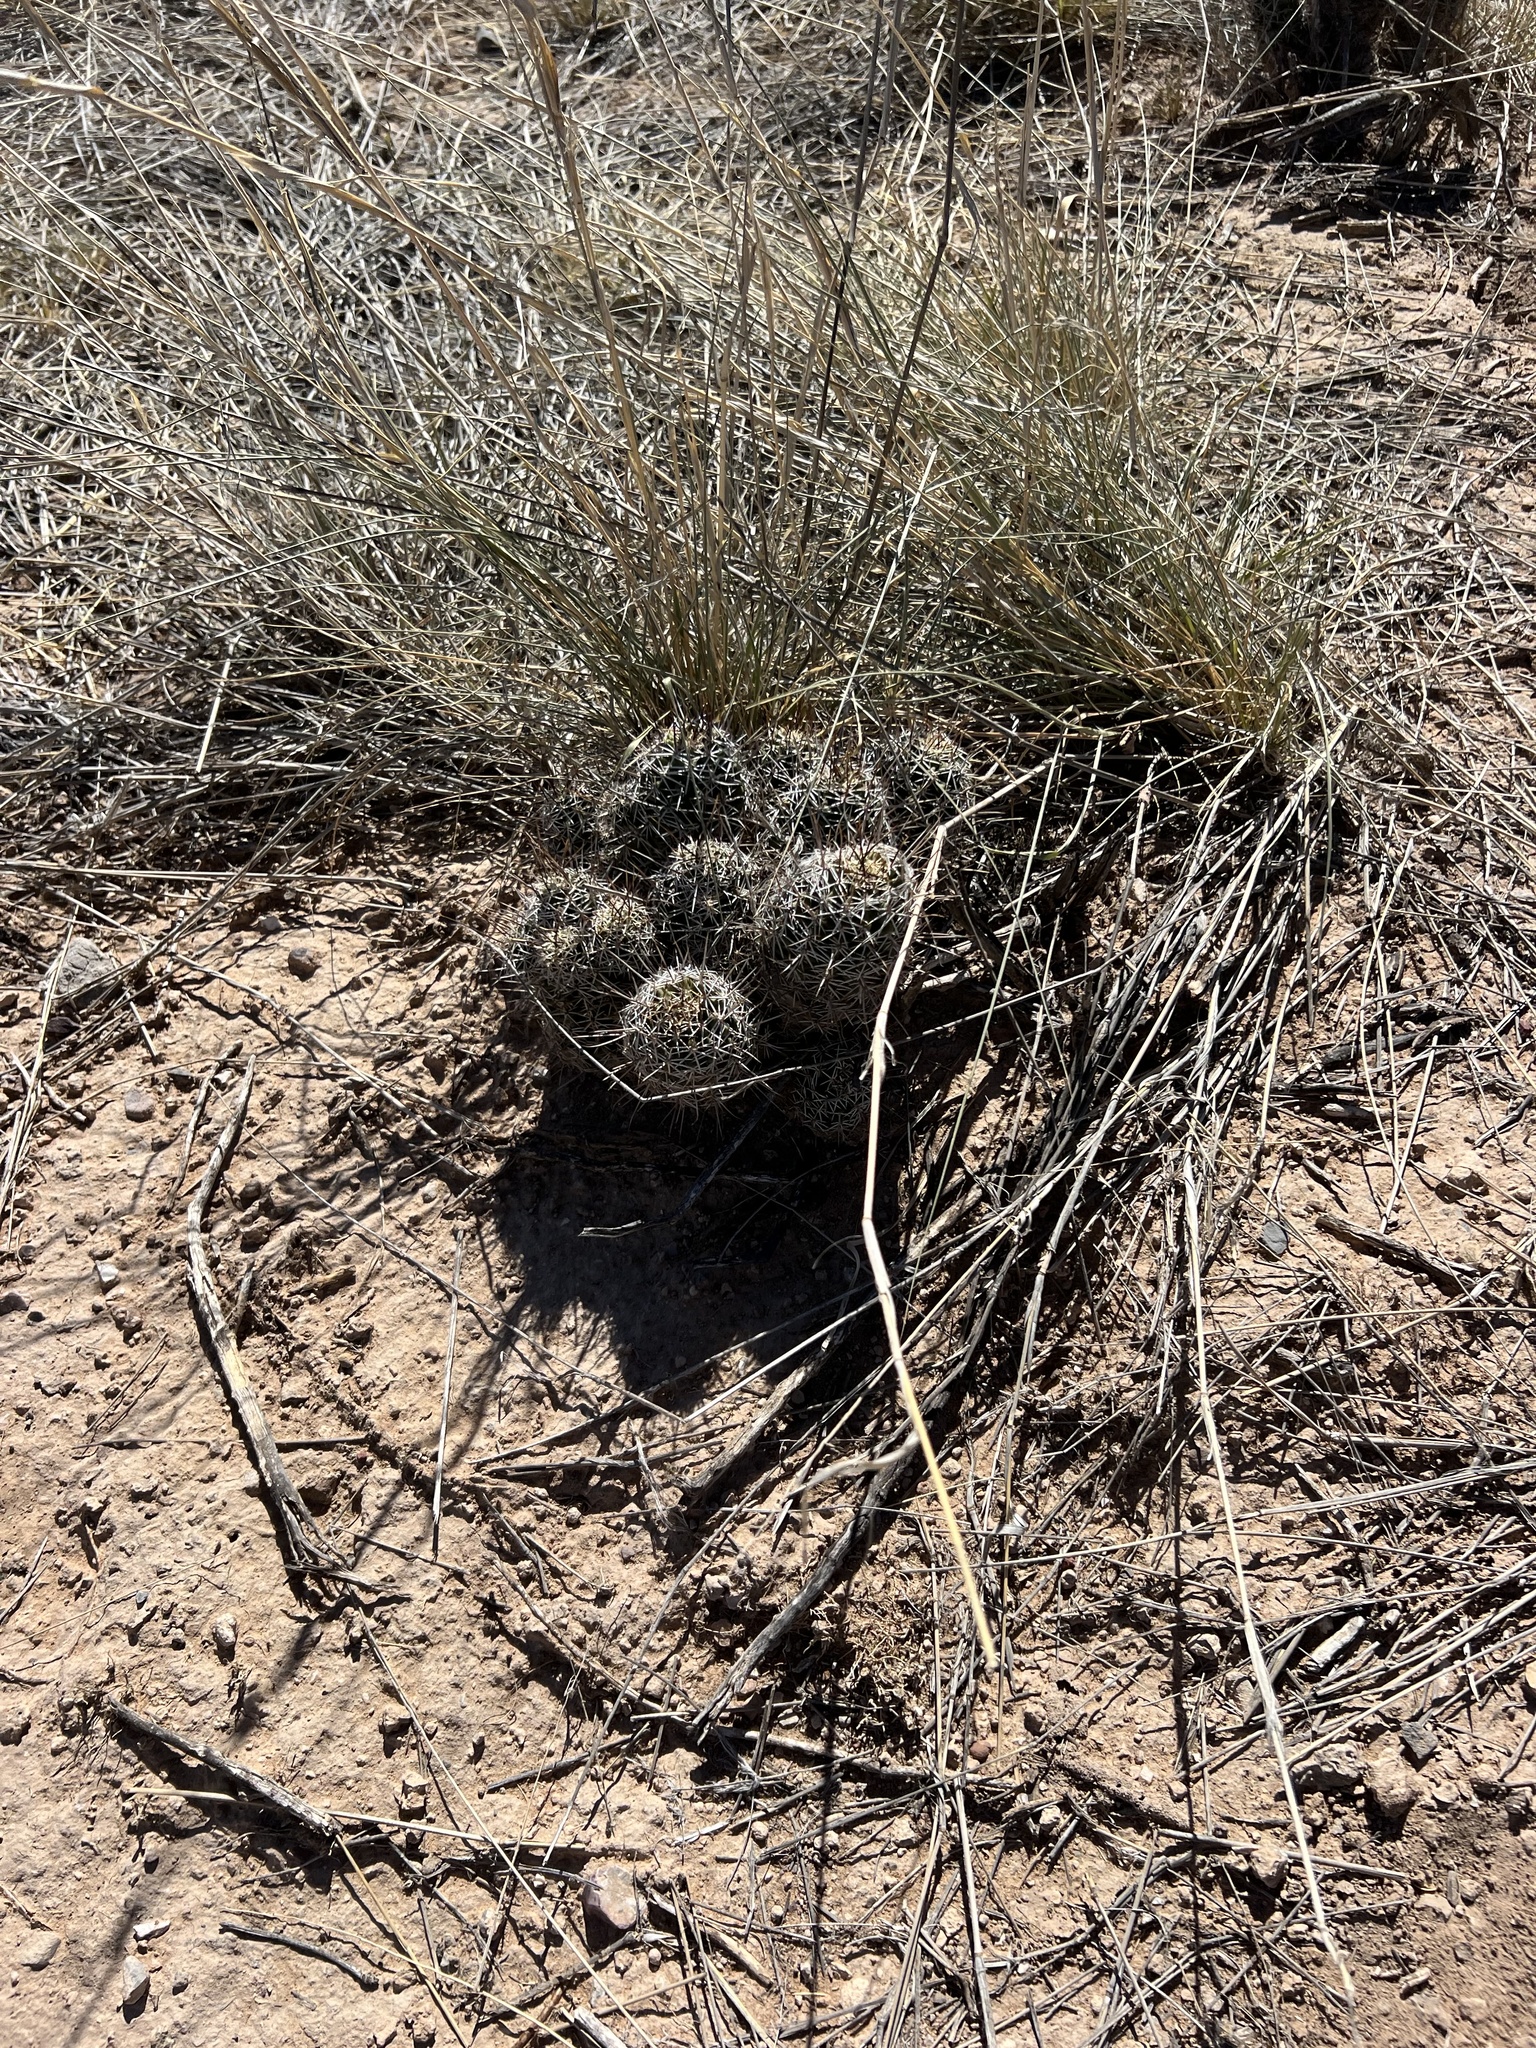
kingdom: Plantae
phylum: Tracheophyta
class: Magnoliopsida
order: Caryophyllales
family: Cactaceae
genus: Echinocereus
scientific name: Echinocereus fasciculatus
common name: Bundle hedgehog
